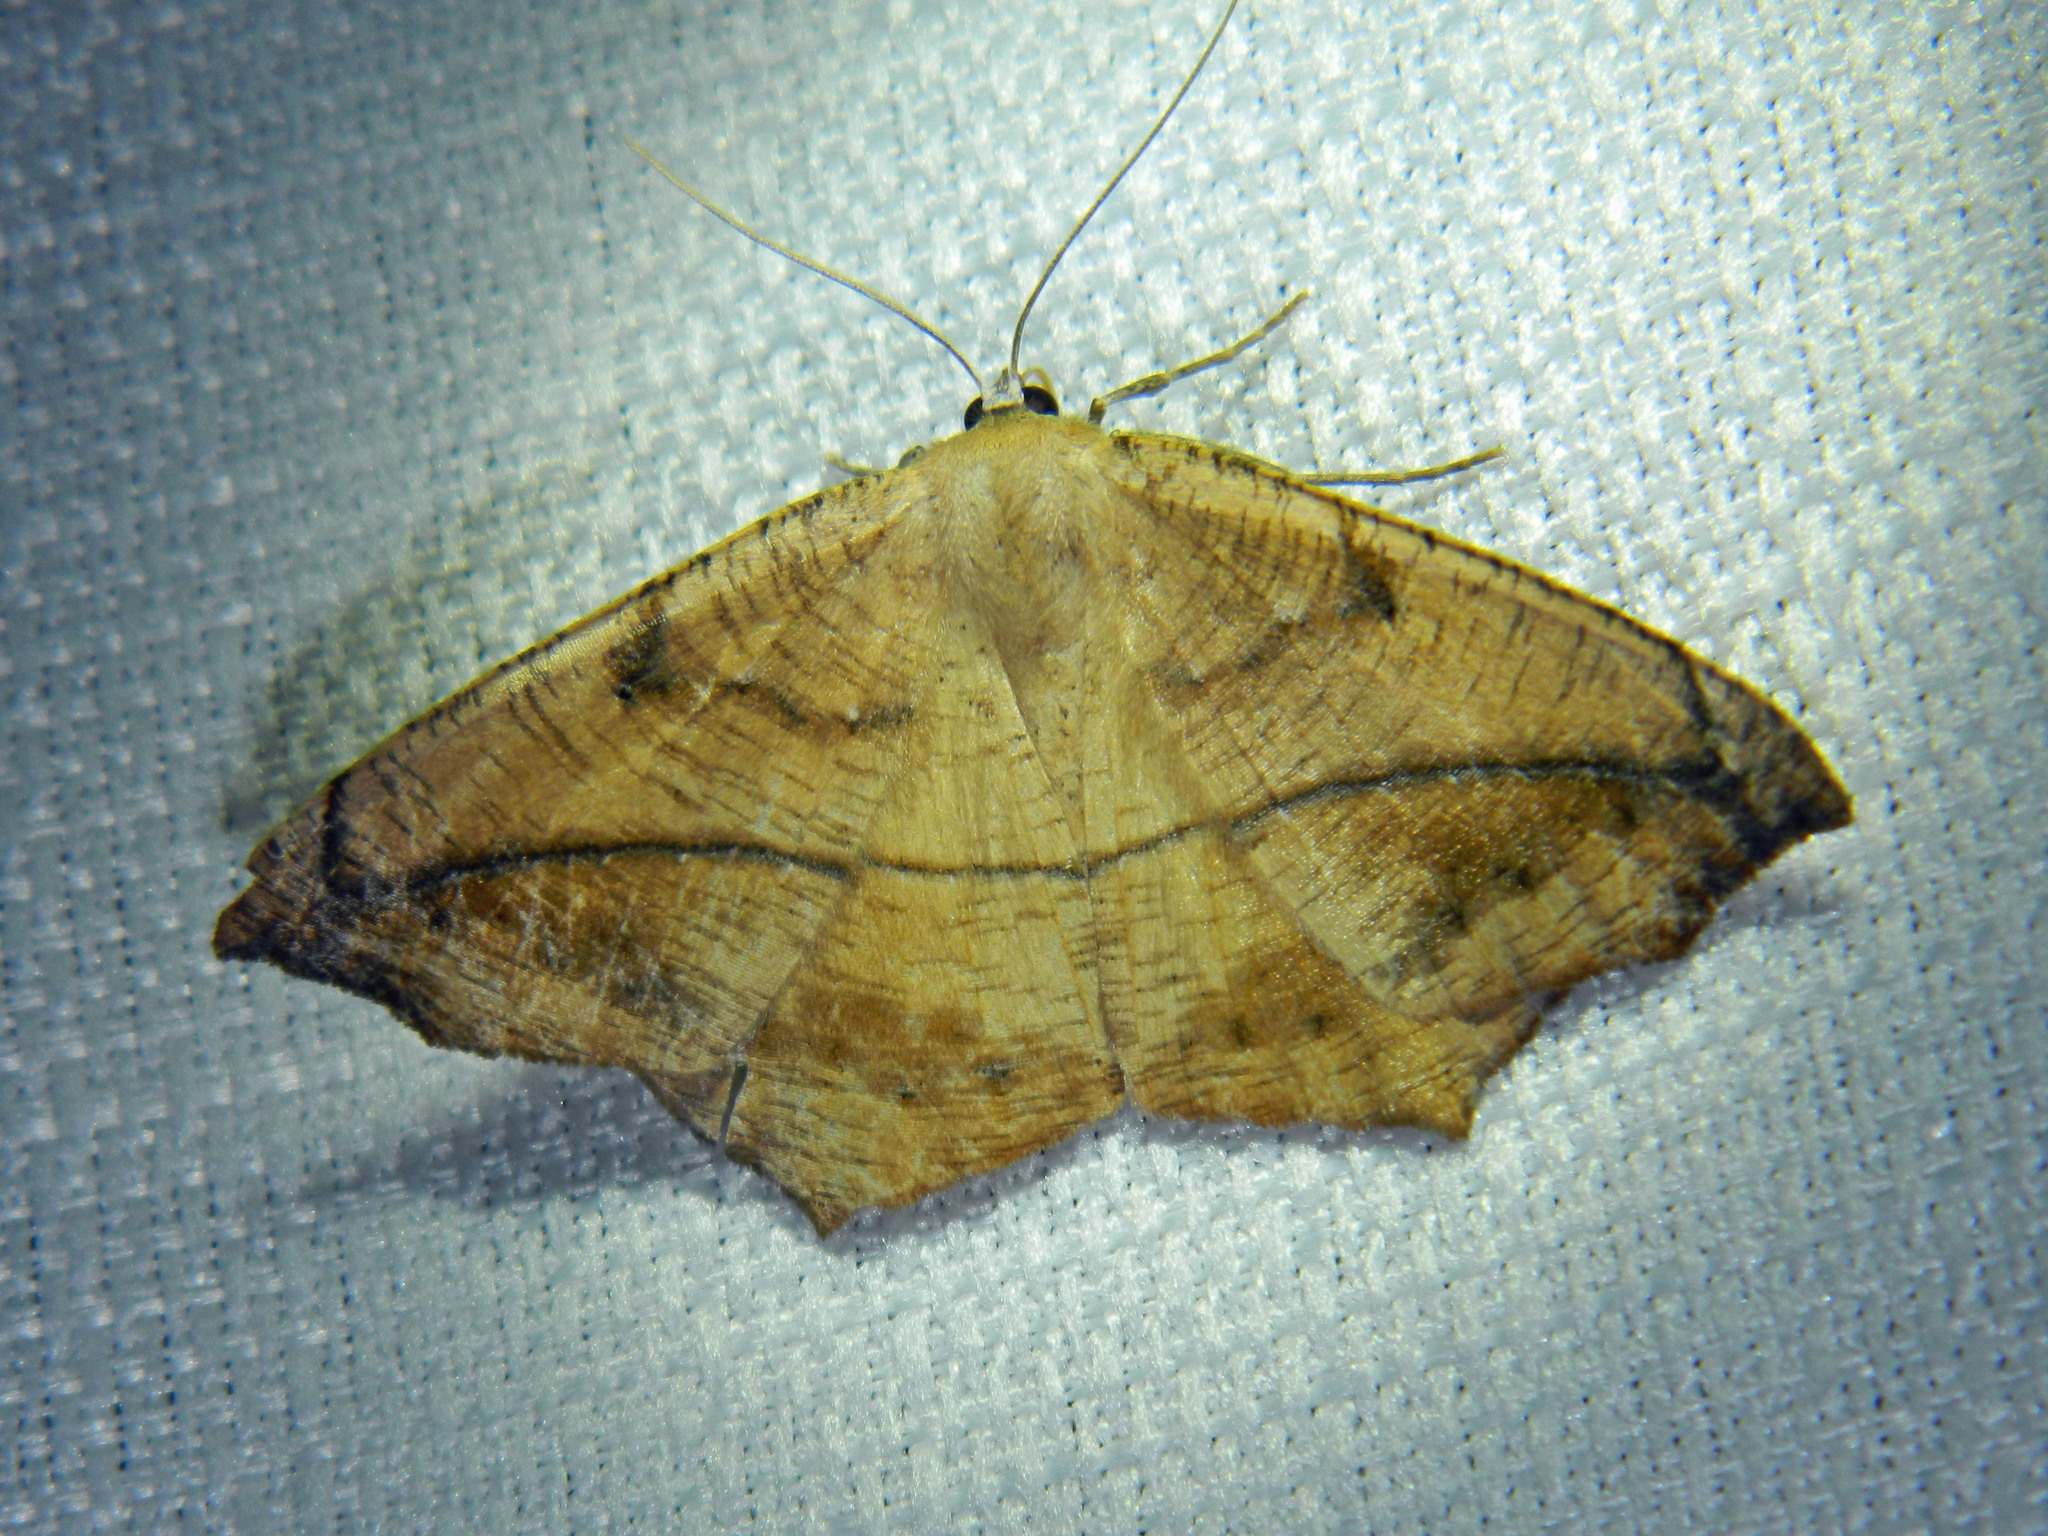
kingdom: Animalia
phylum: Arthropoda
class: Insecta
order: Lepidoptera
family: Geometridae
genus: Prochoerodes
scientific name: Prochoerodes lineola
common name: Large maple spanworm
